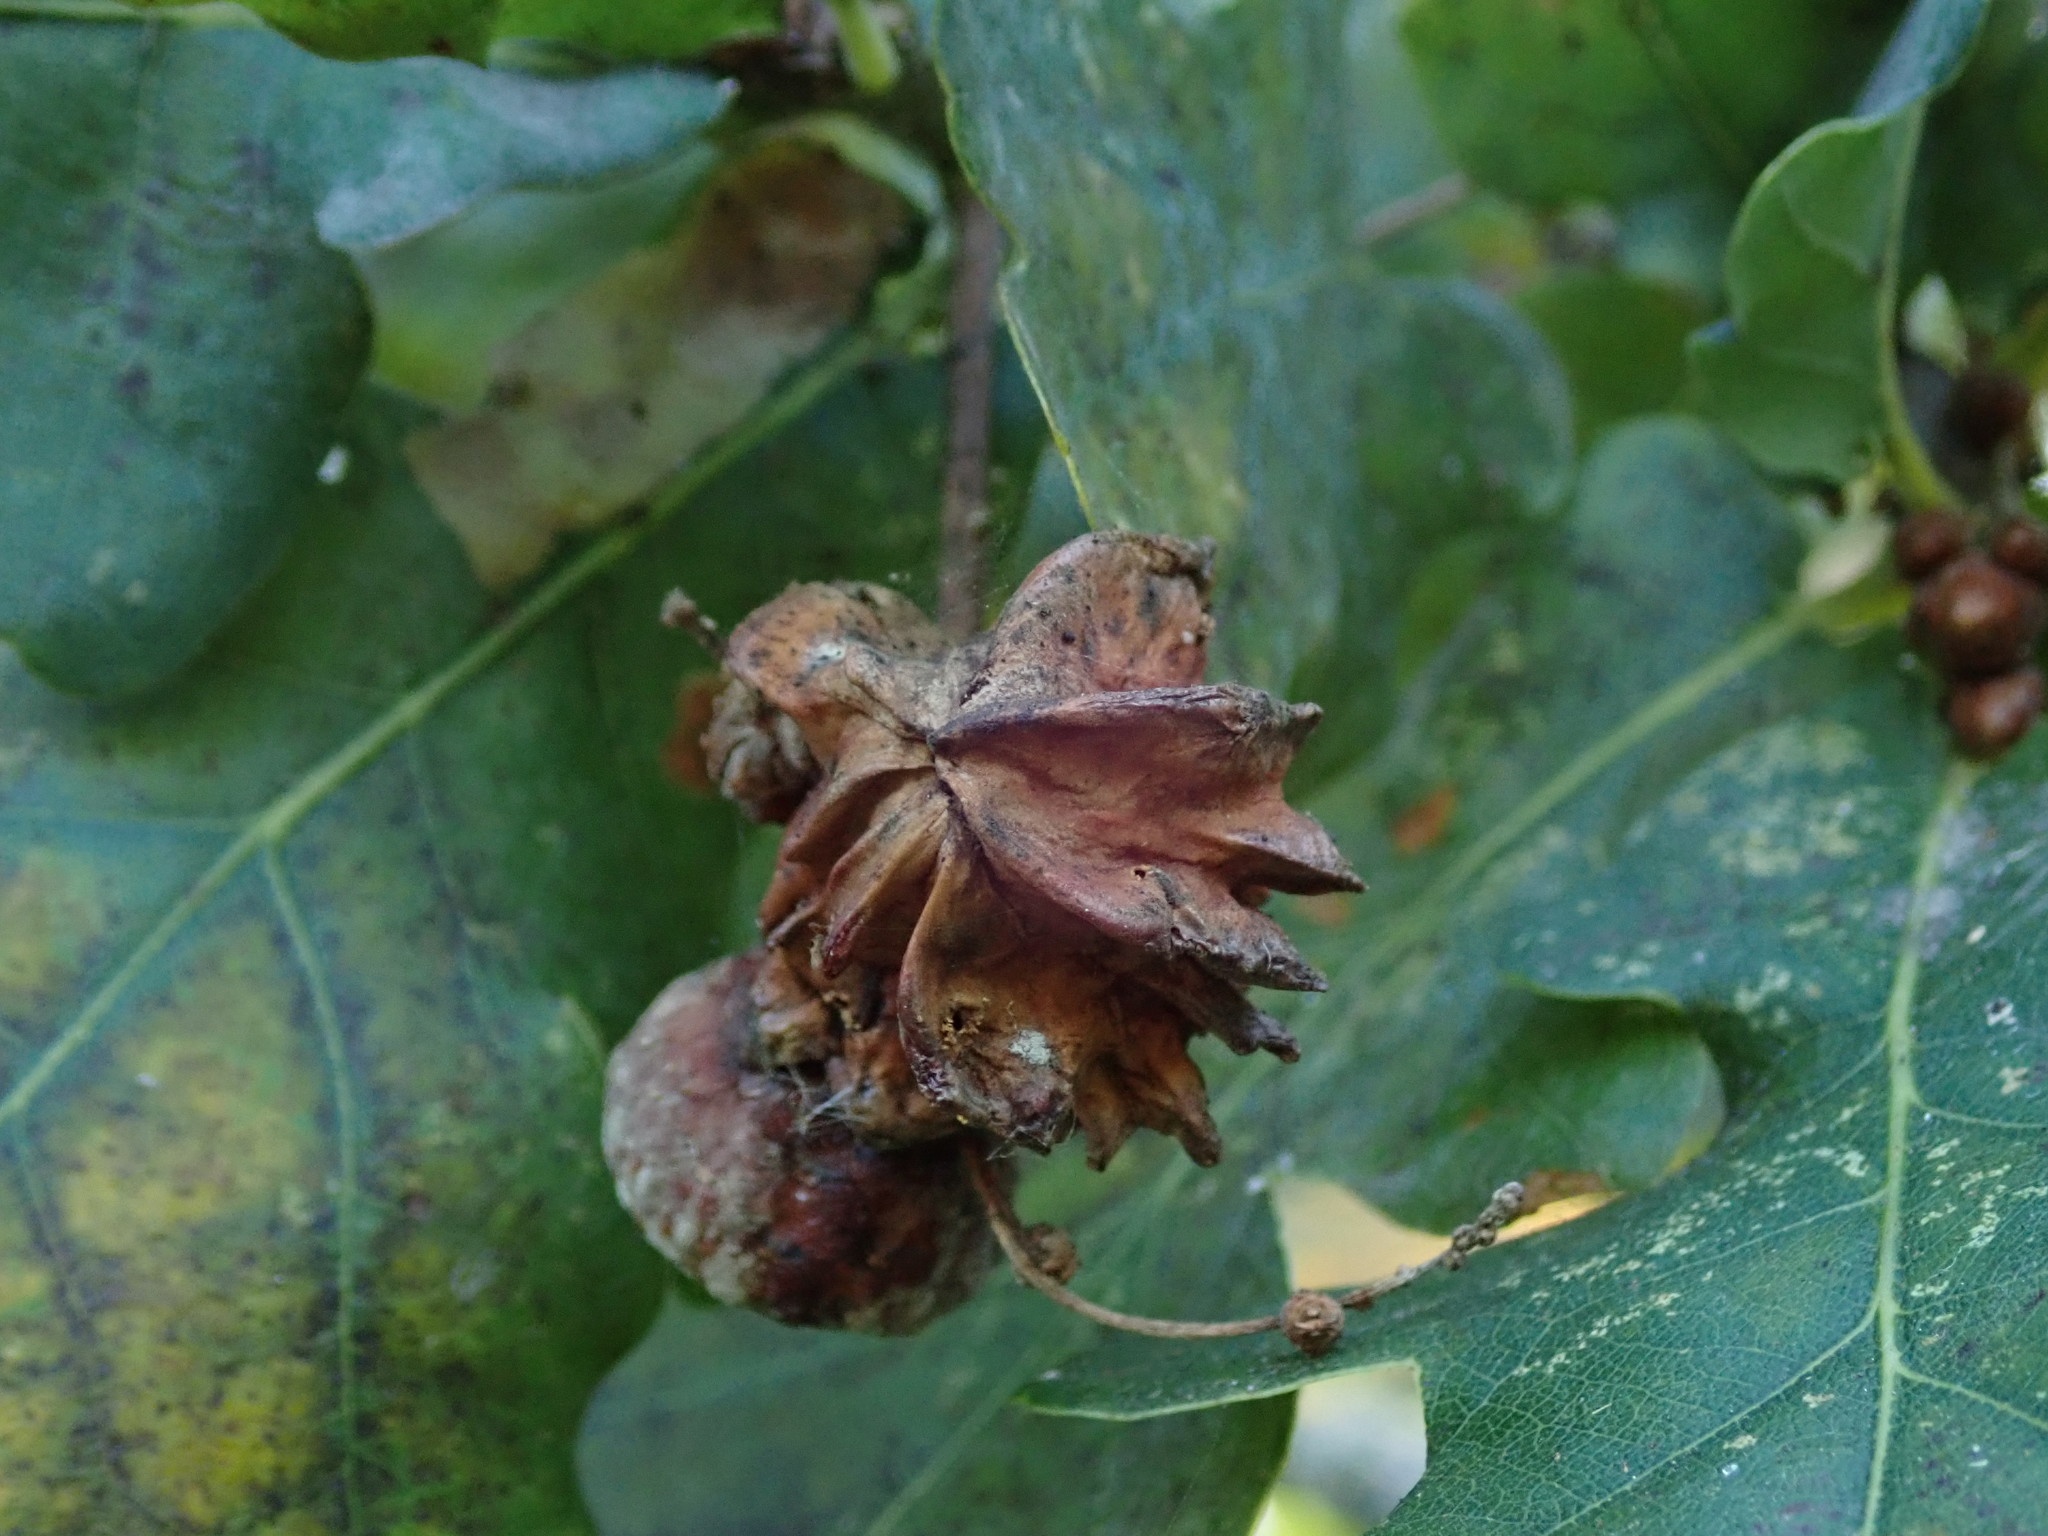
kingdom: Animalia
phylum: Arthropoda
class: Insecta
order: Hymenoptera
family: Cynipidae
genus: Andricus
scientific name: Andricus quercuscalicis
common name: Knopper gall
